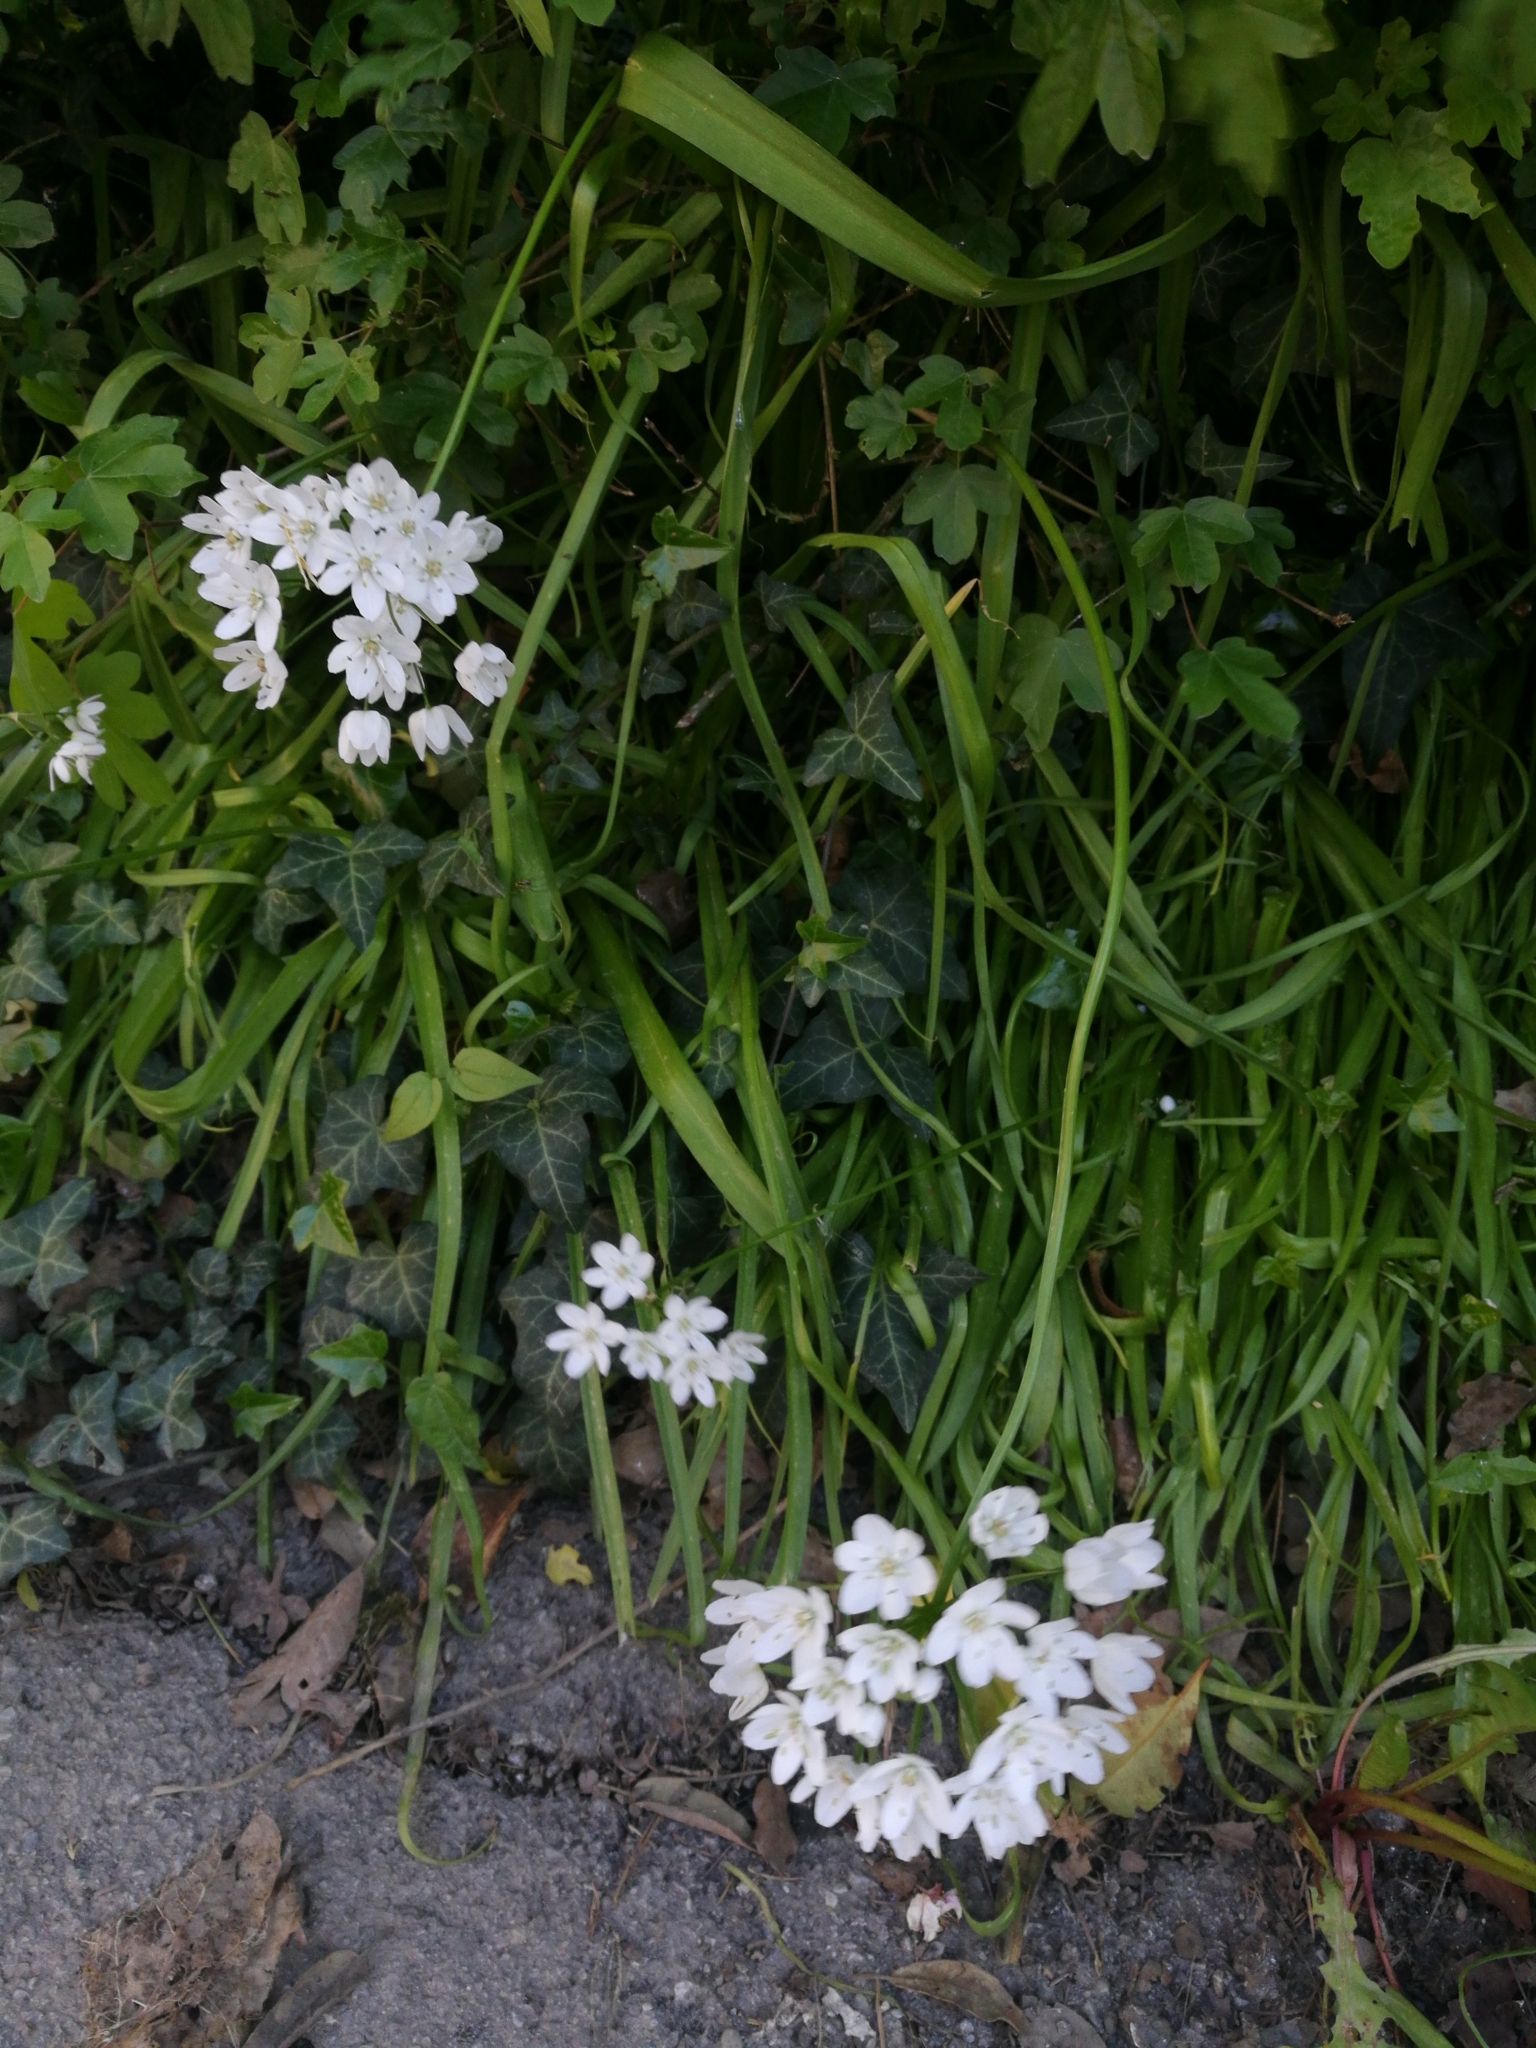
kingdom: Plantae
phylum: Tracheophyta
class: Liliopsida
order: Asparagales
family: Amaryllidaceae
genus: Allium
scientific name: Allium neapolitanum
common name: Neapolitan garlic
